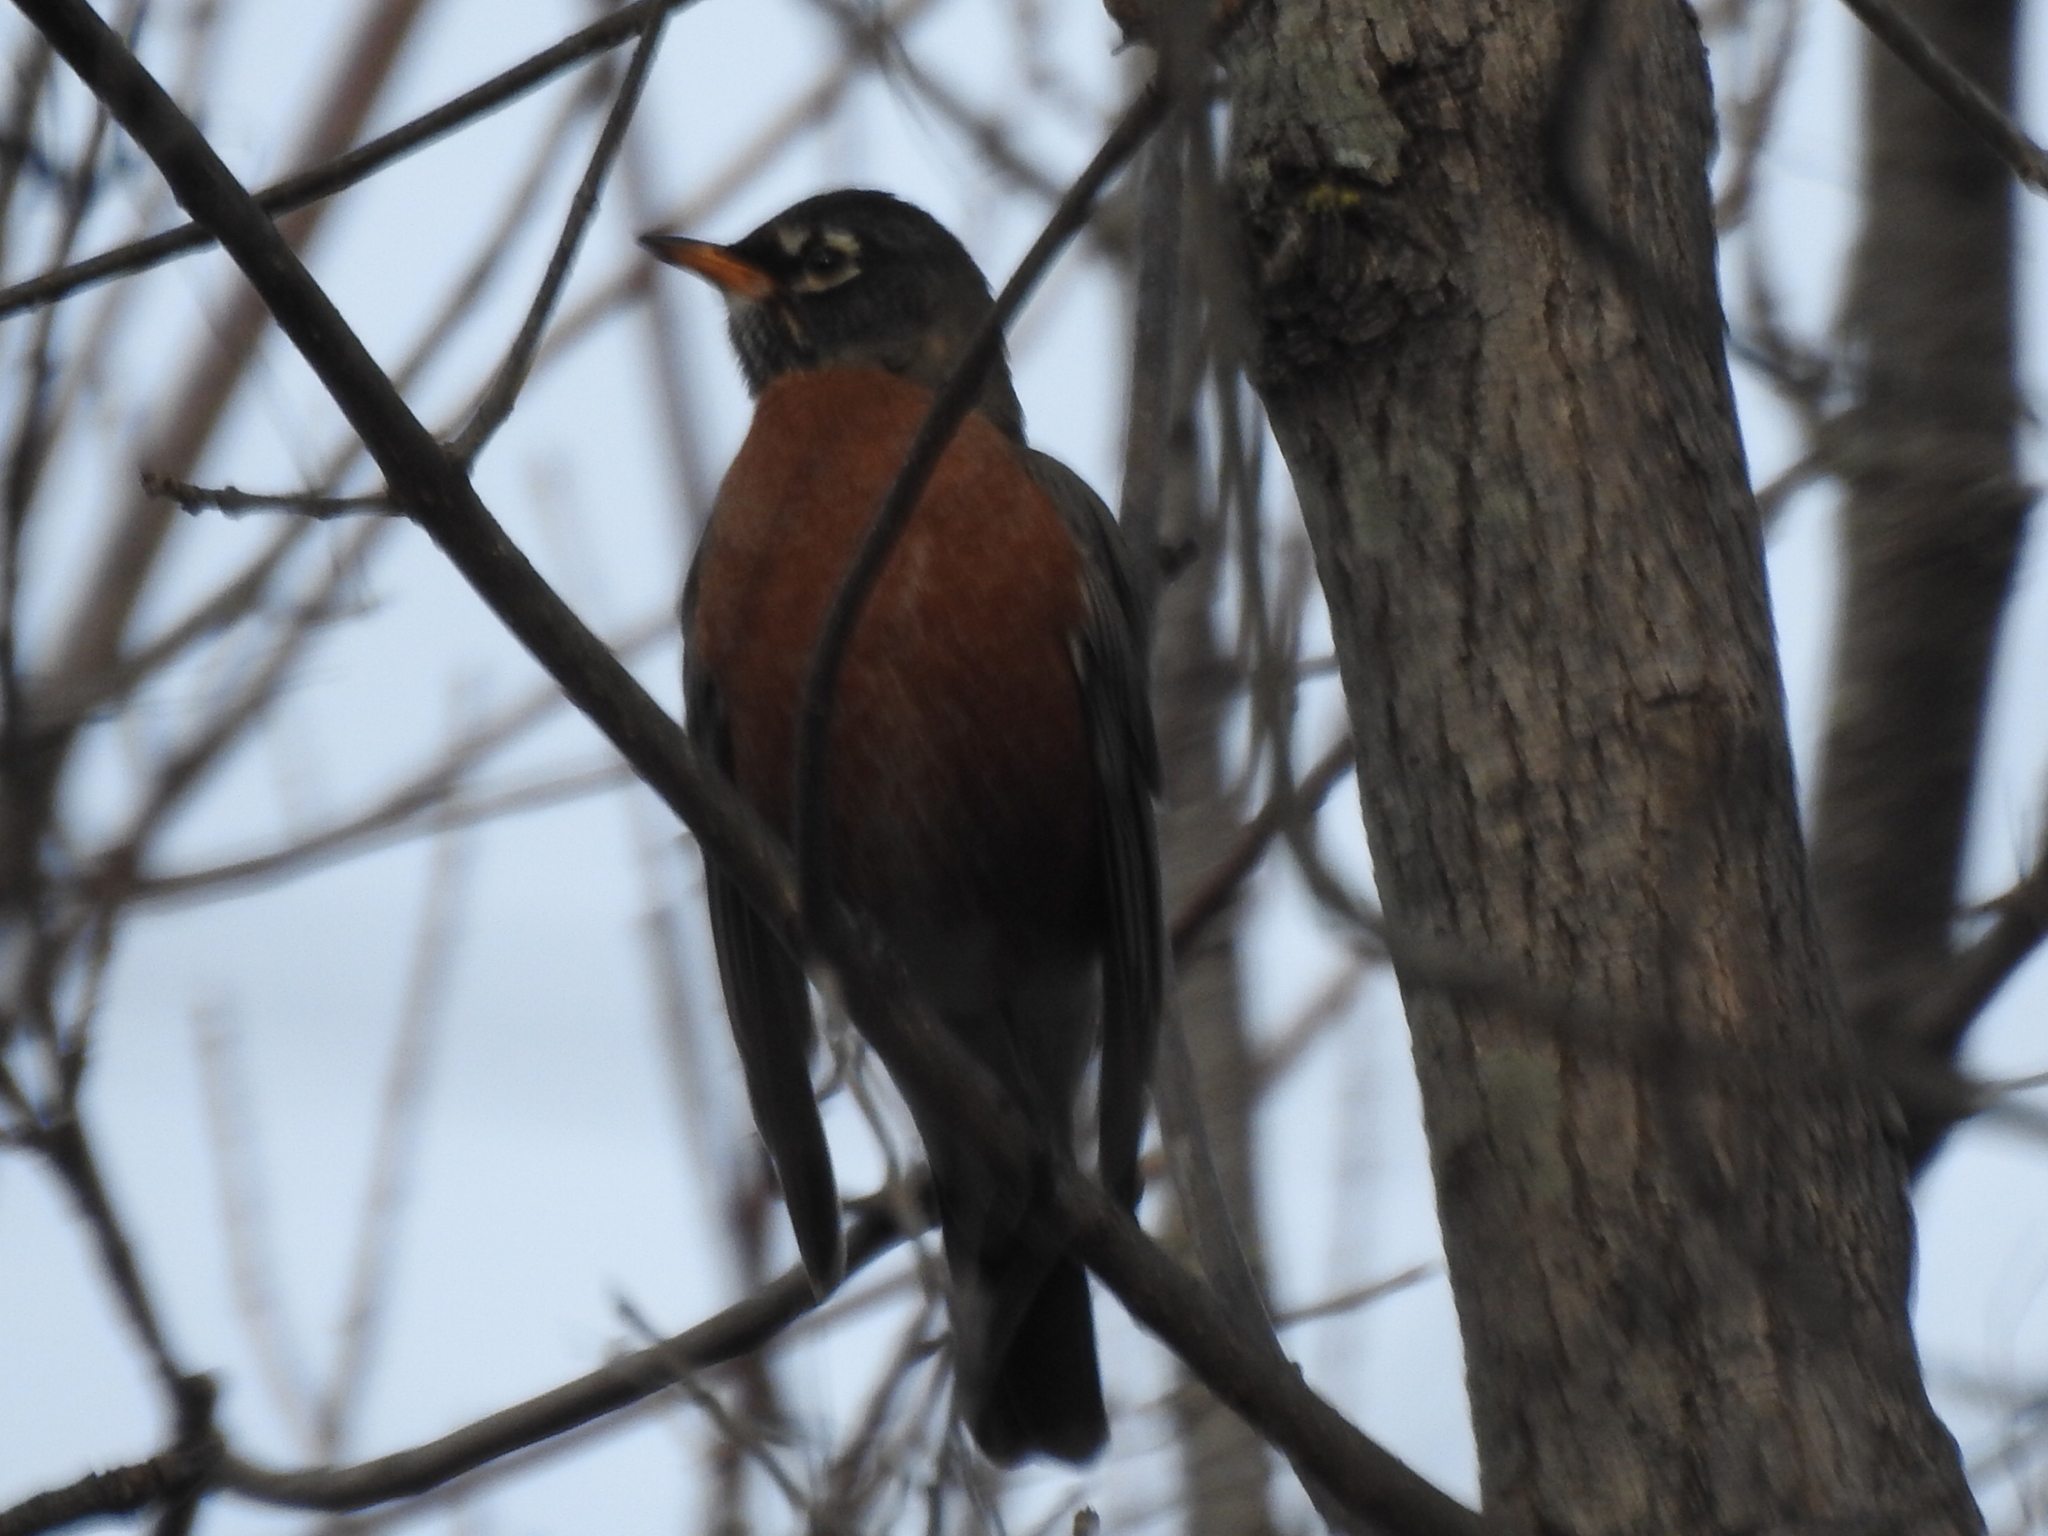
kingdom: Animalia
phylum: Chordata
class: Aves
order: Passeriformes
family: Turdidae
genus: Turdus
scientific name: Turdus migratorius
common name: American robin
